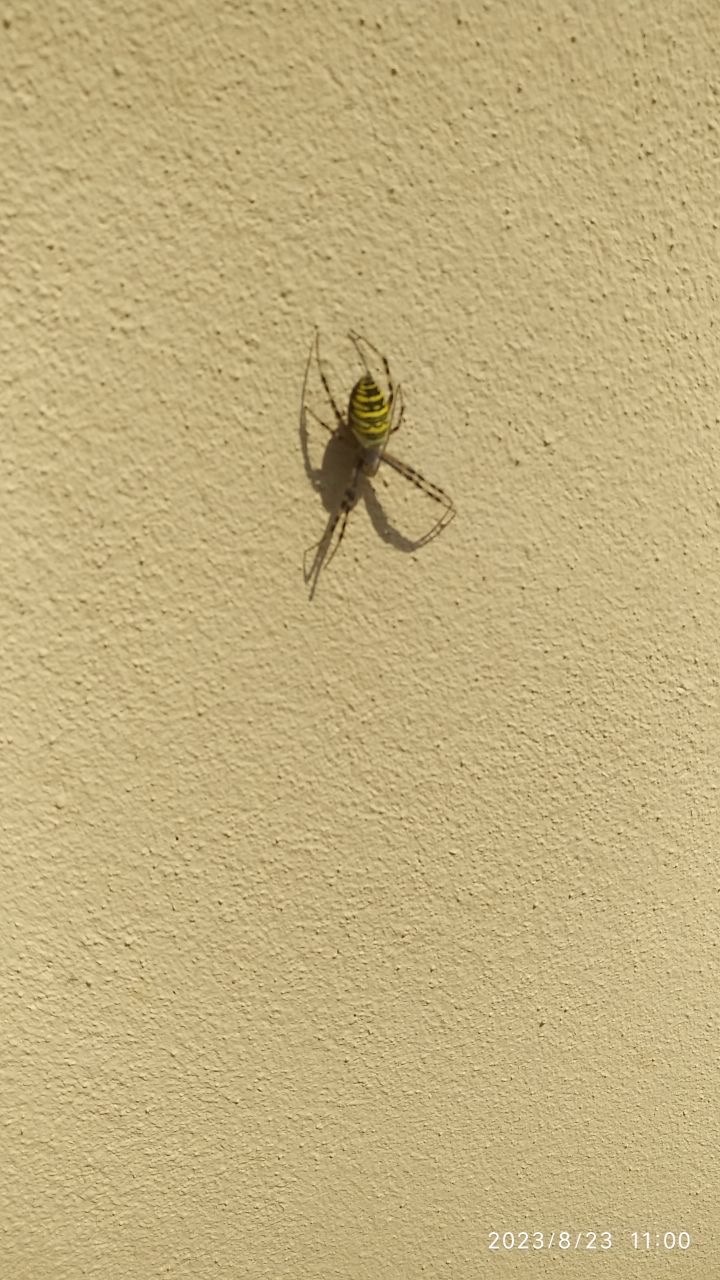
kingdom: Animalia
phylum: Arthropoda
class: Arachnida
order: Araneae
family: Araneidae
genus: Argiope
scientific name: Argiope bruennichi
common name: Wasp spider
